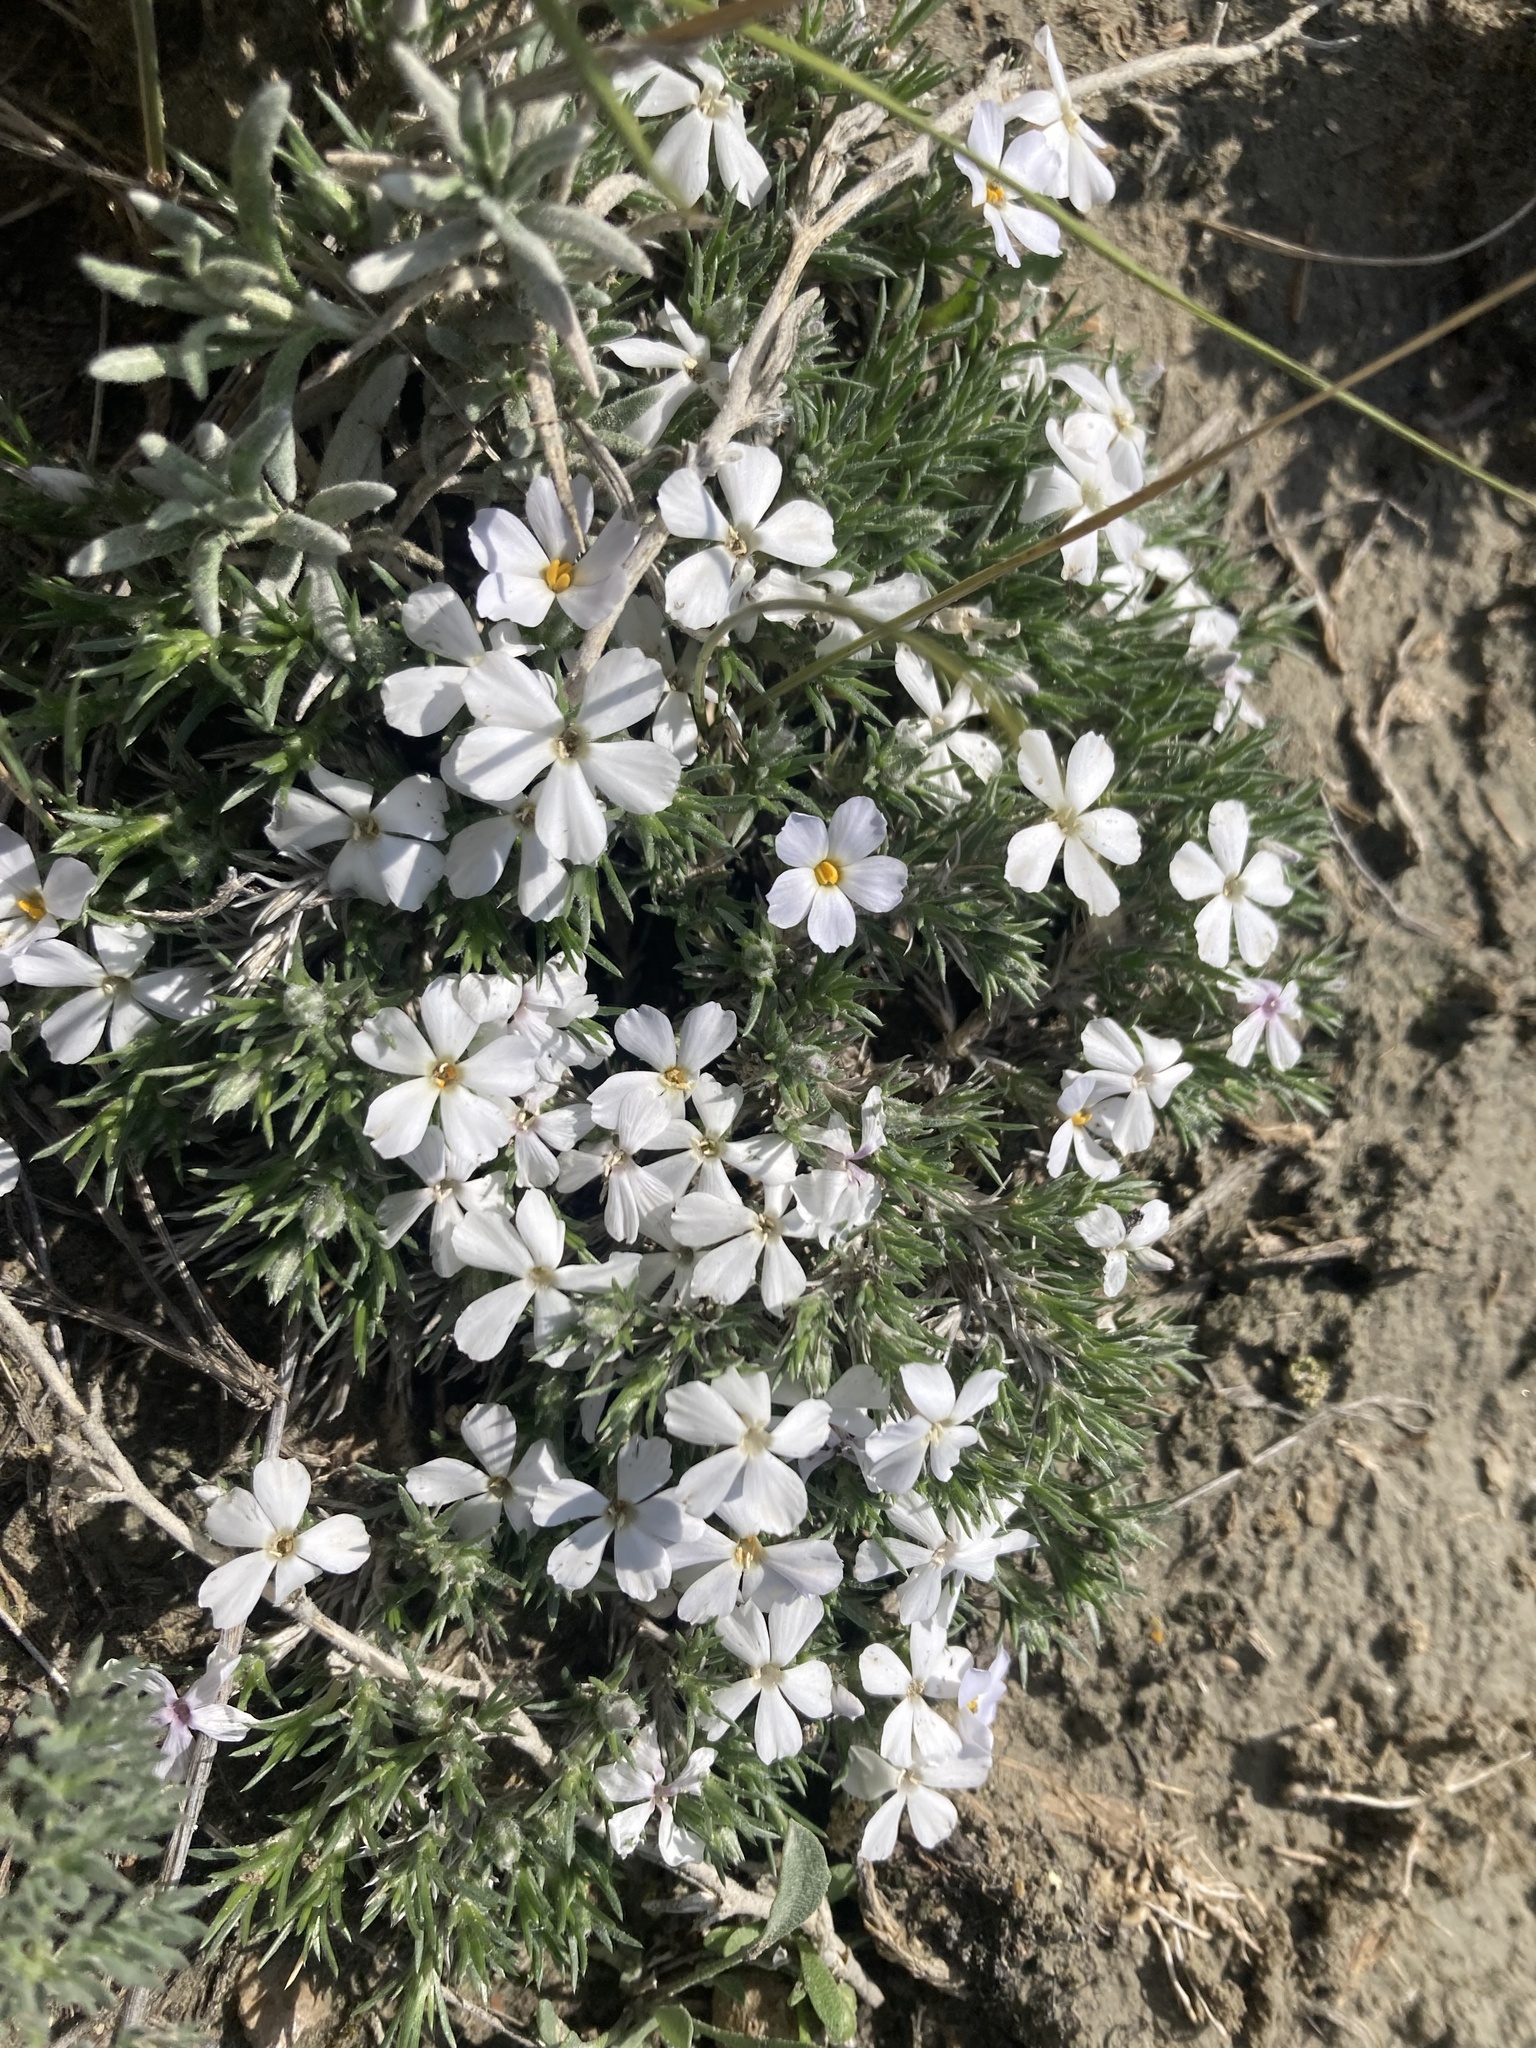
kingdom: Plantae
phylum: Tracheophyta
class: Magnoliopsida
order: Ericales
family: Polemoniaceae
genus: Phlox
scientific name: Phlox hoodii
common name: Moss phlox
